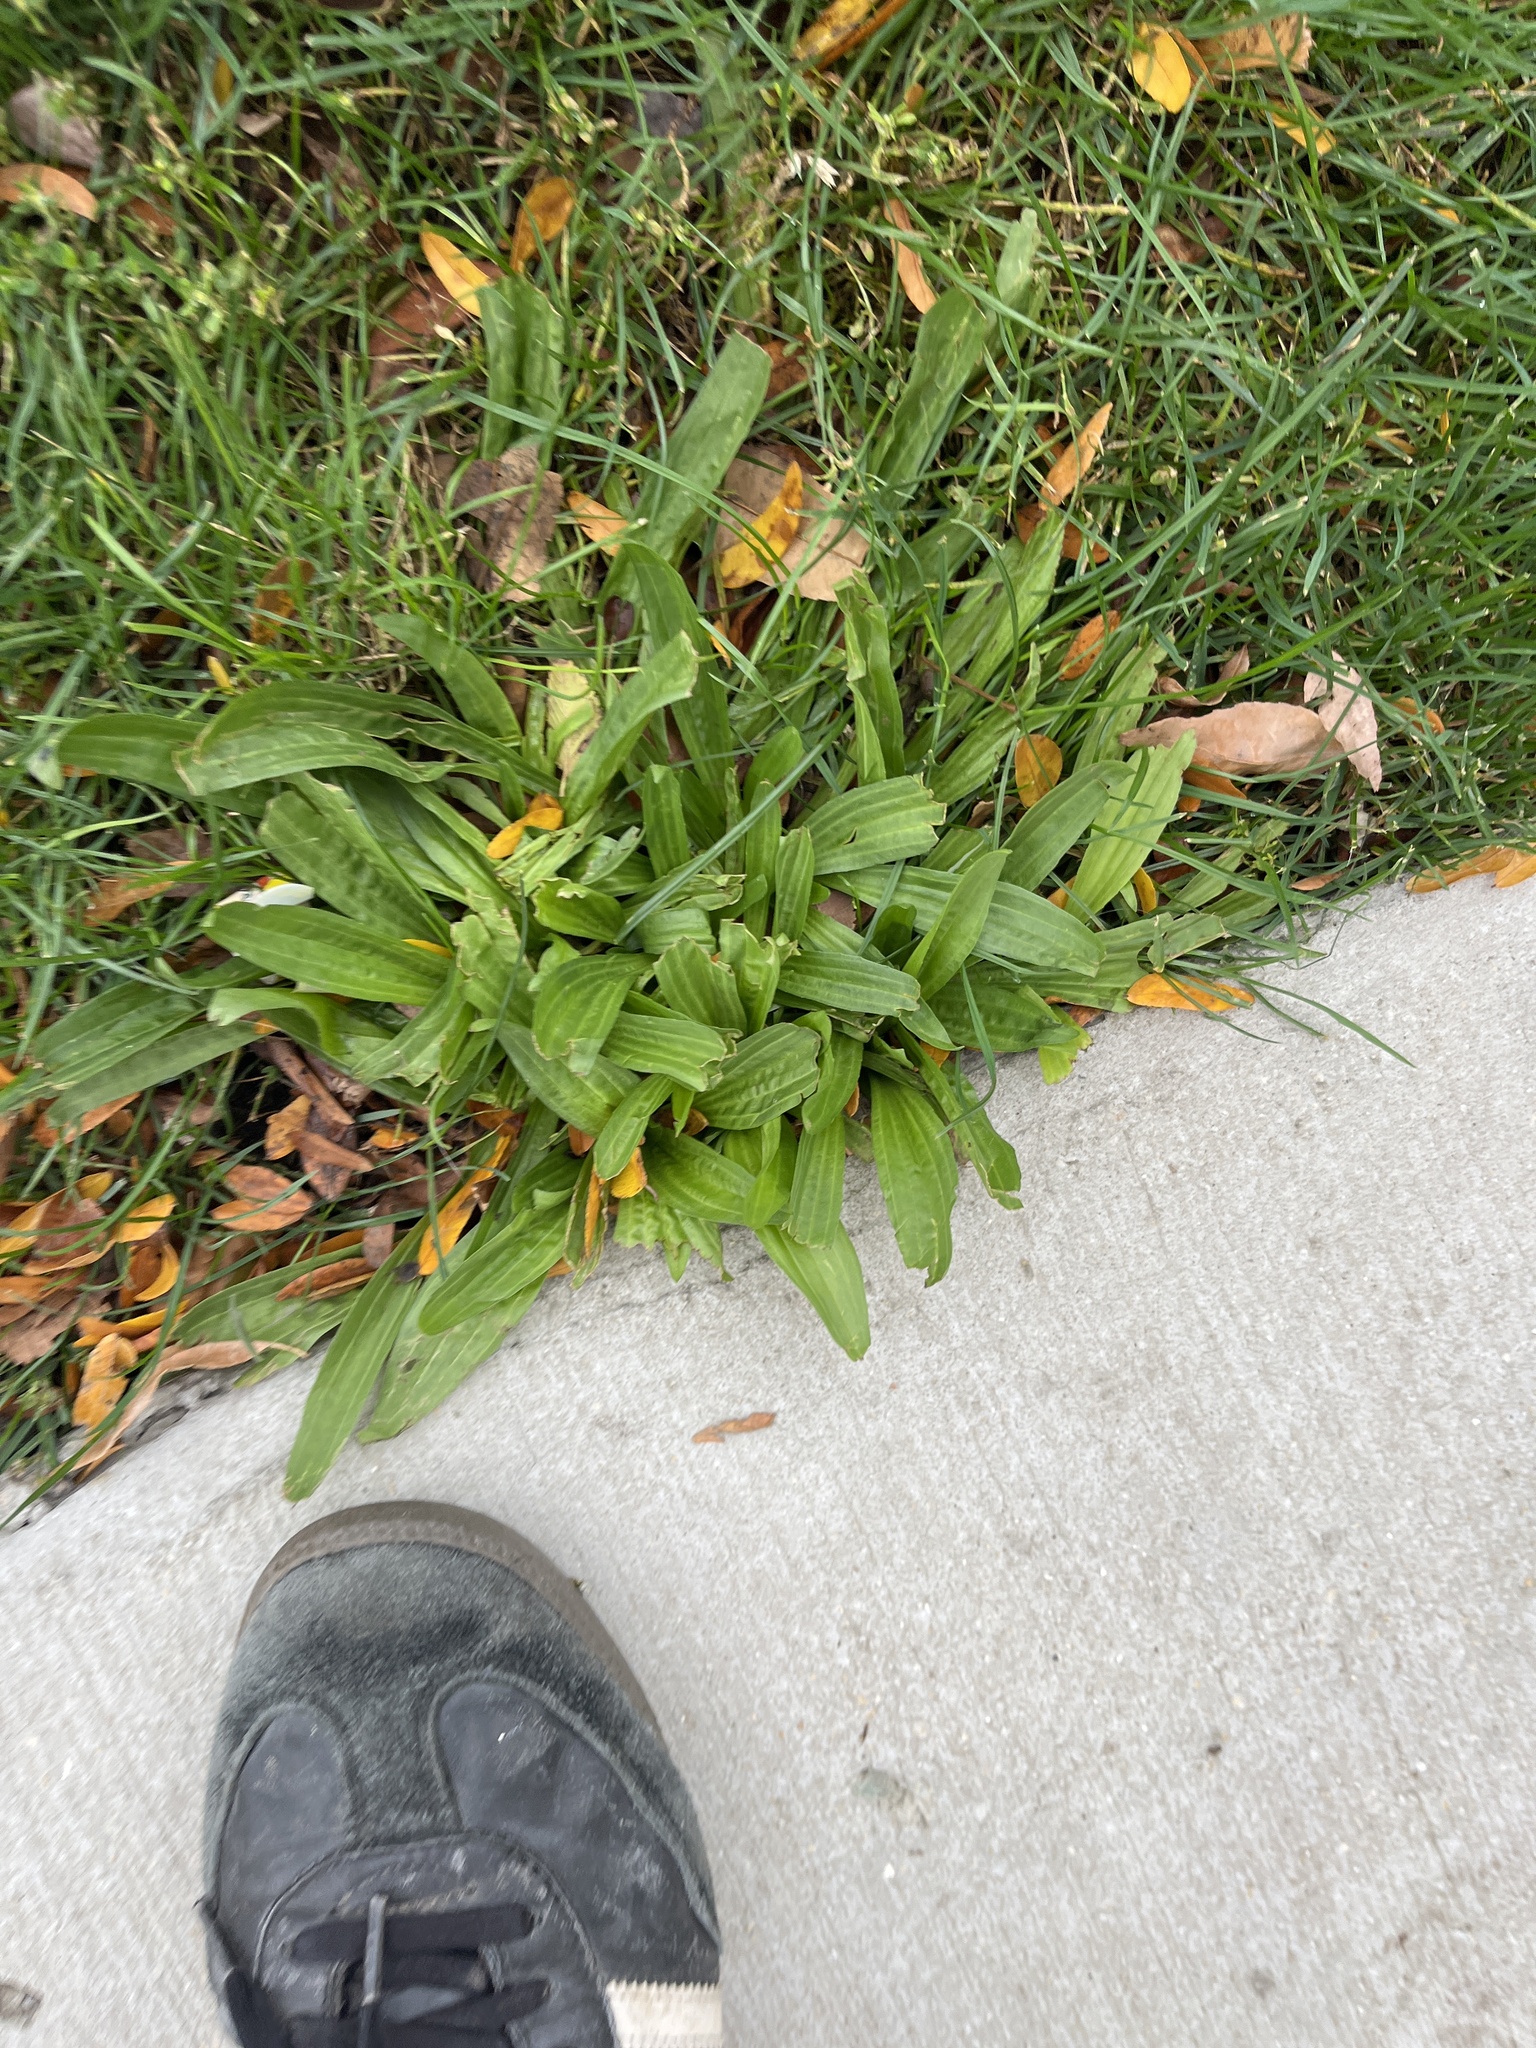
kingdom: Plantae
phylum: Tracheophyta
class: Magnoliopsida
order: Lamiales
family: Plantaginaceae
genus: Plantago
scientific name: Plantago lanceolata
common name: Ribwort plantain
